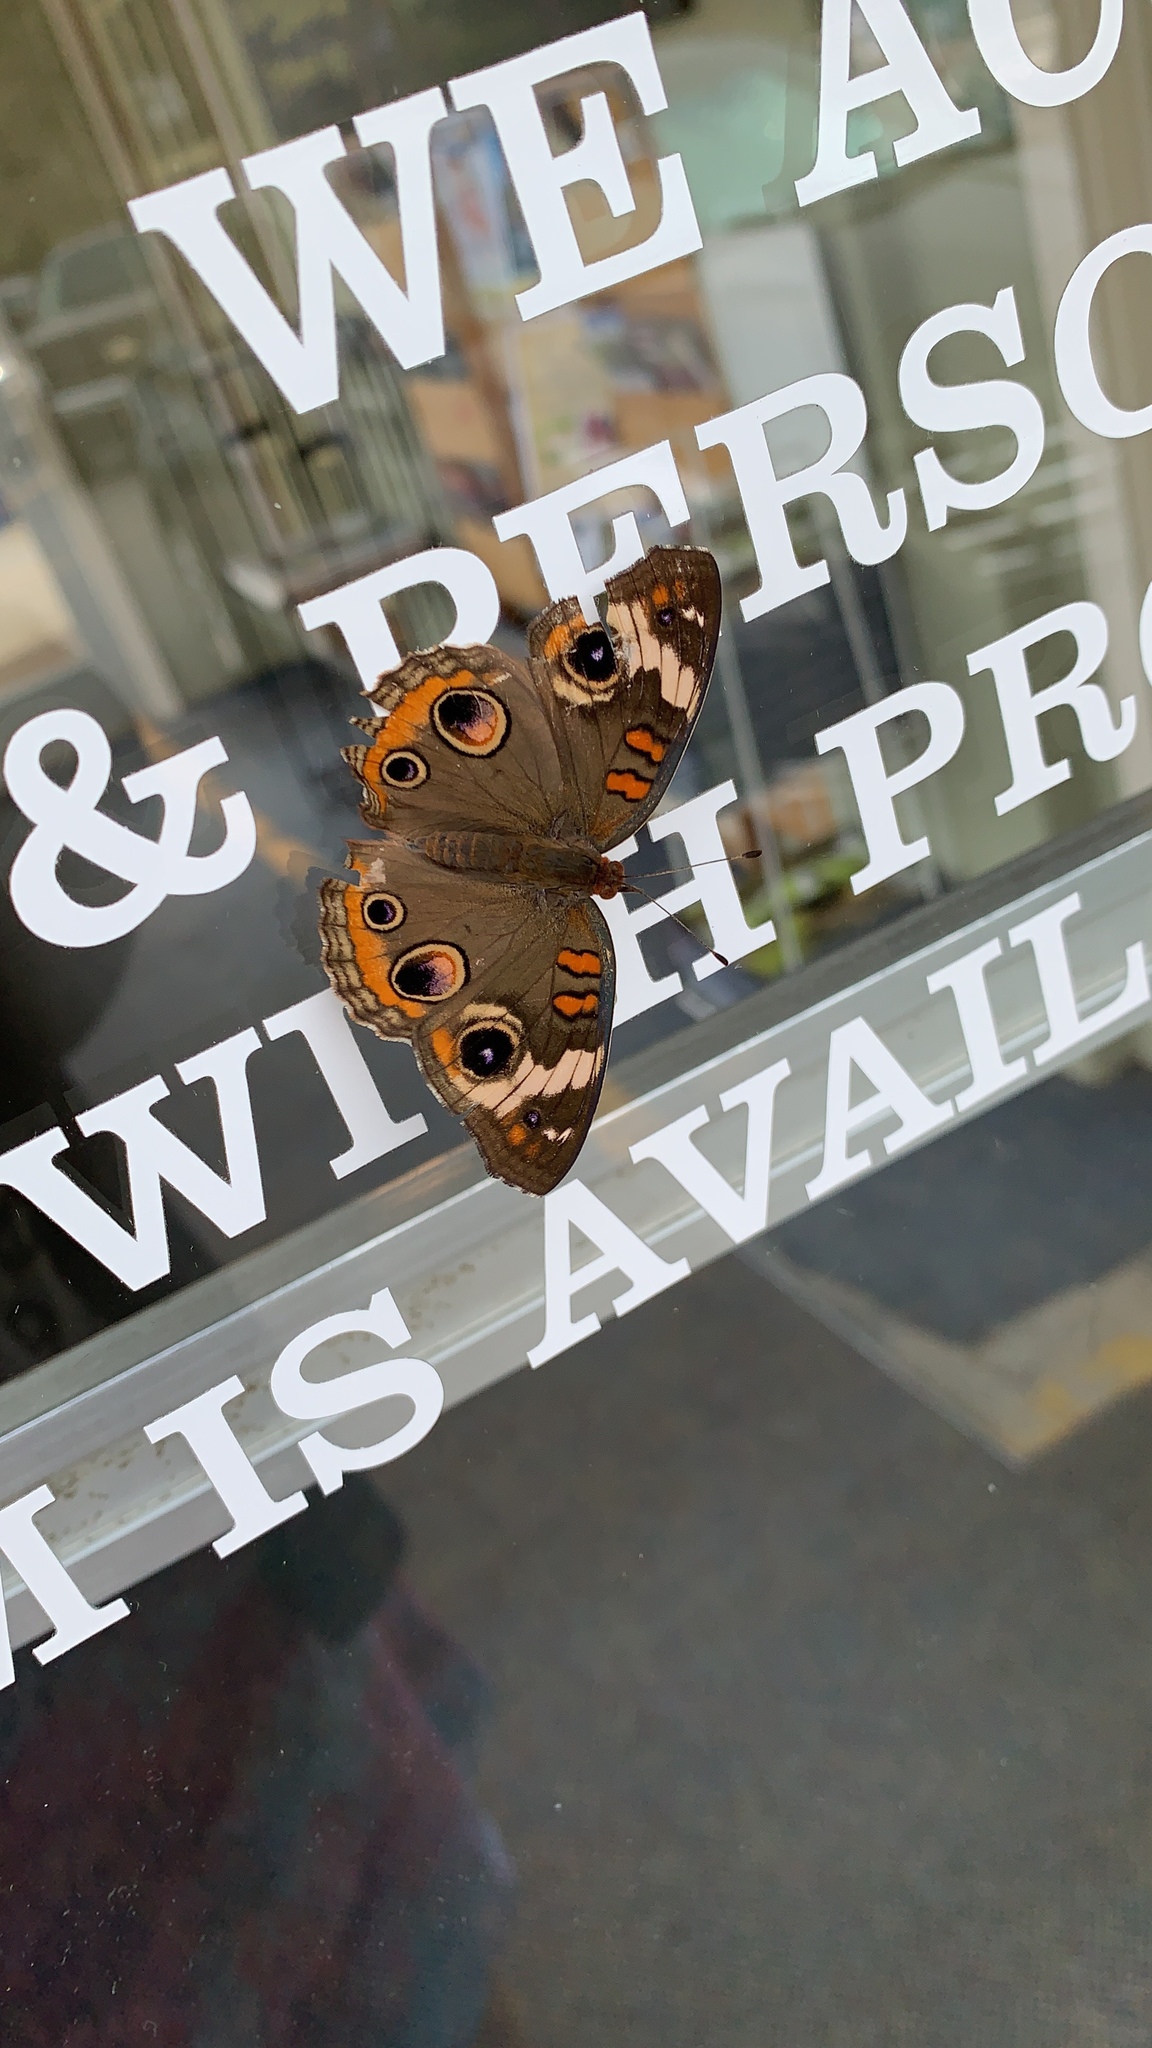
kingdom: Animalia
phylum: Arthropoda
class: Insecta
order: Lepidoptera
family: Nymphalidae
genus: Junonia
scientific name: Junonia coenia
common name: Common buckeye
